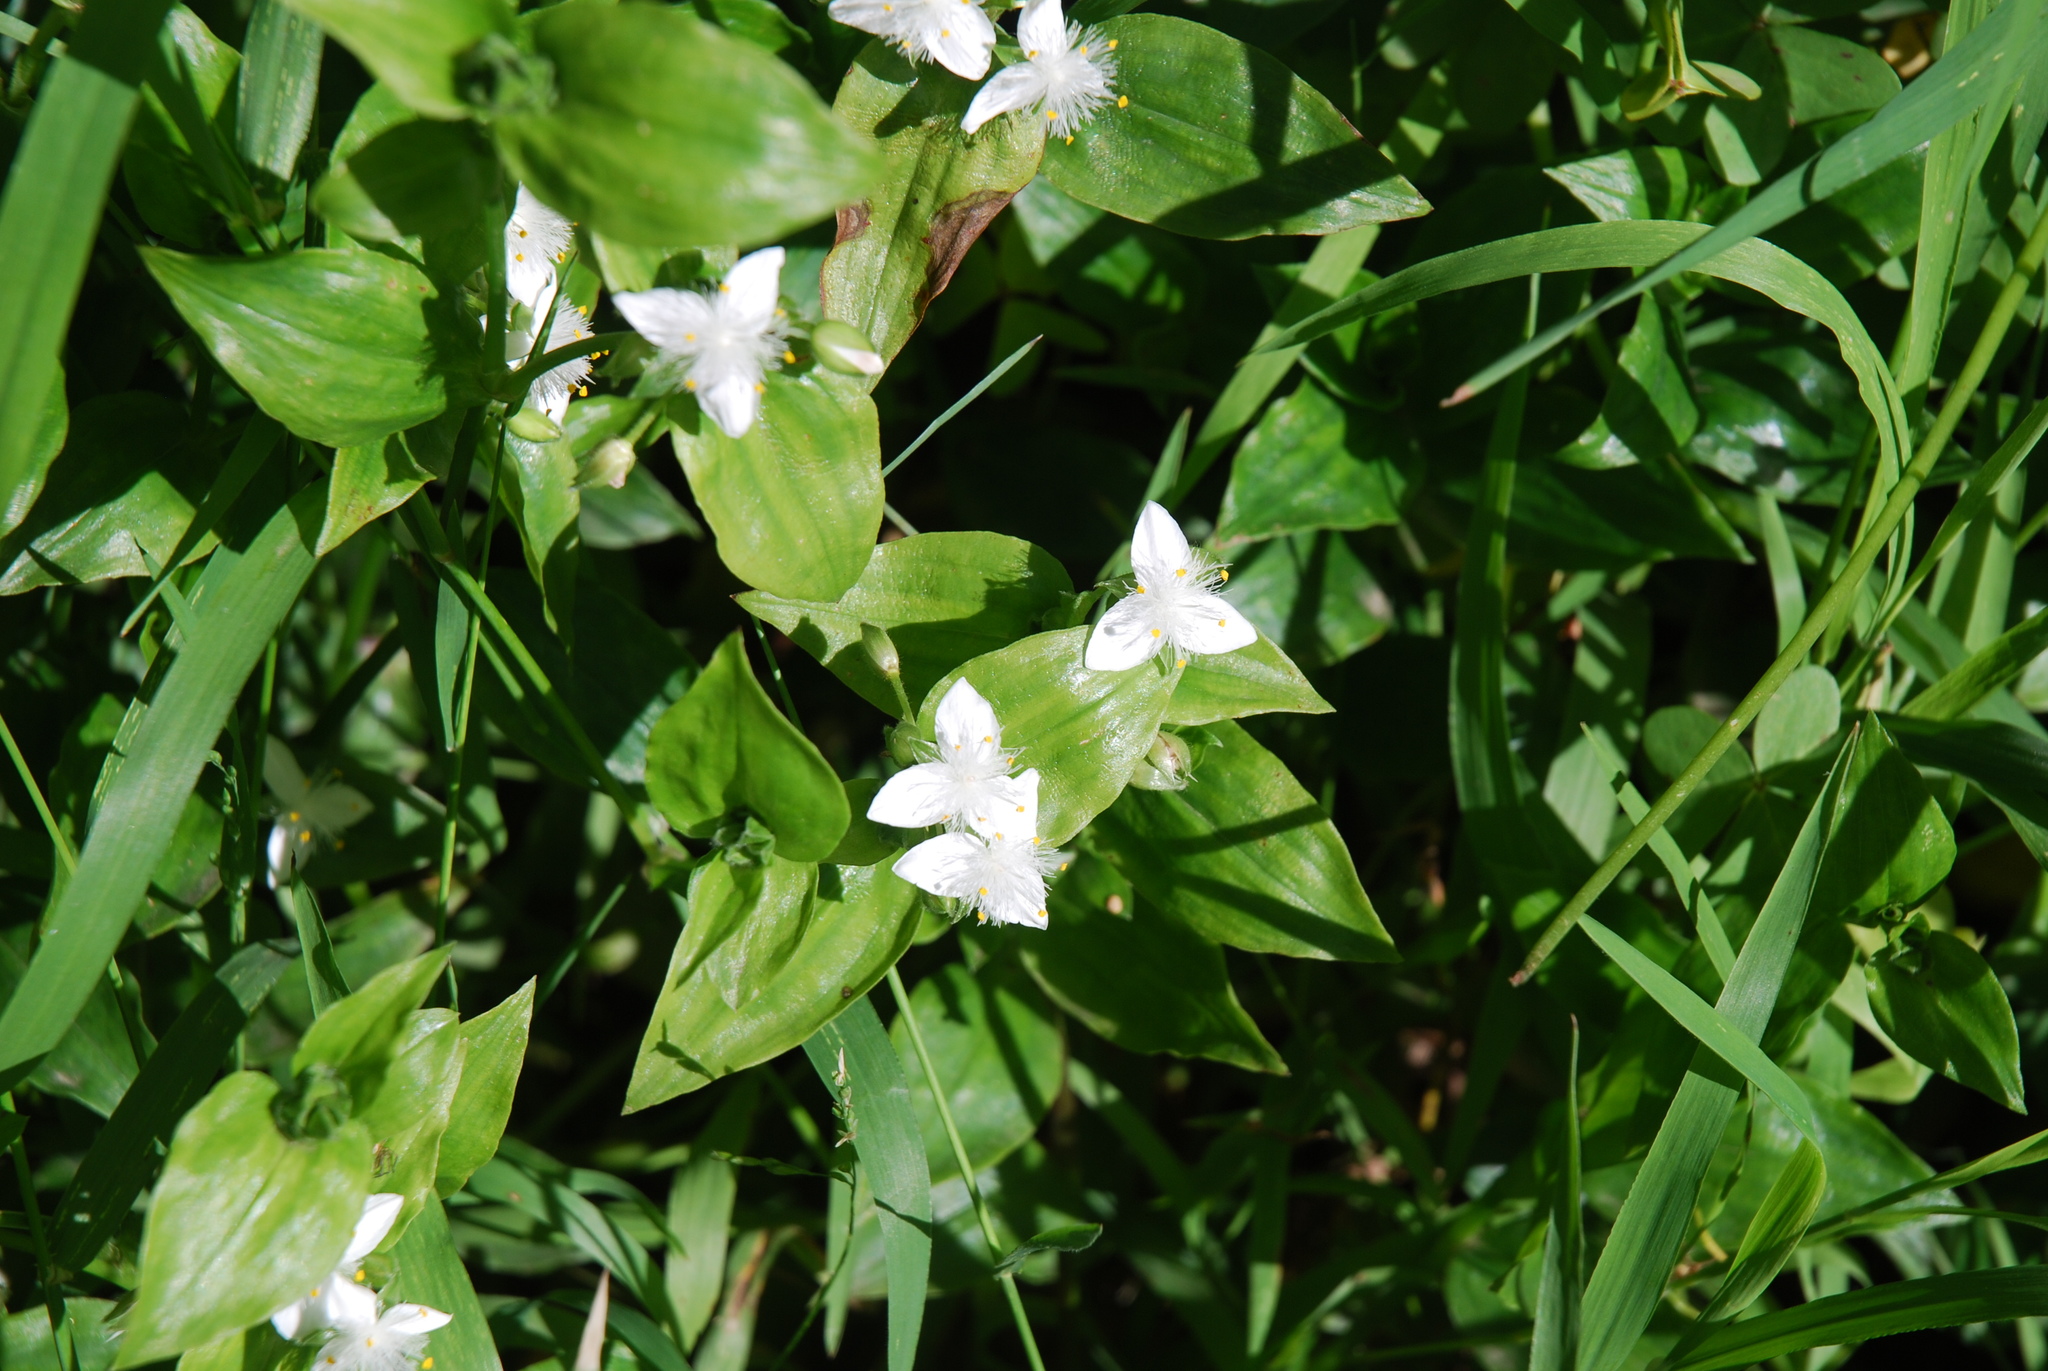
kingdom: Plantae
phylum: Tracheophyta
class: Liliopsida
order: Commelinales
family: Commelinaceae
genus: Tradescantia
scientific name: Tradescantia fluminensis
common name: Wandering-jew
